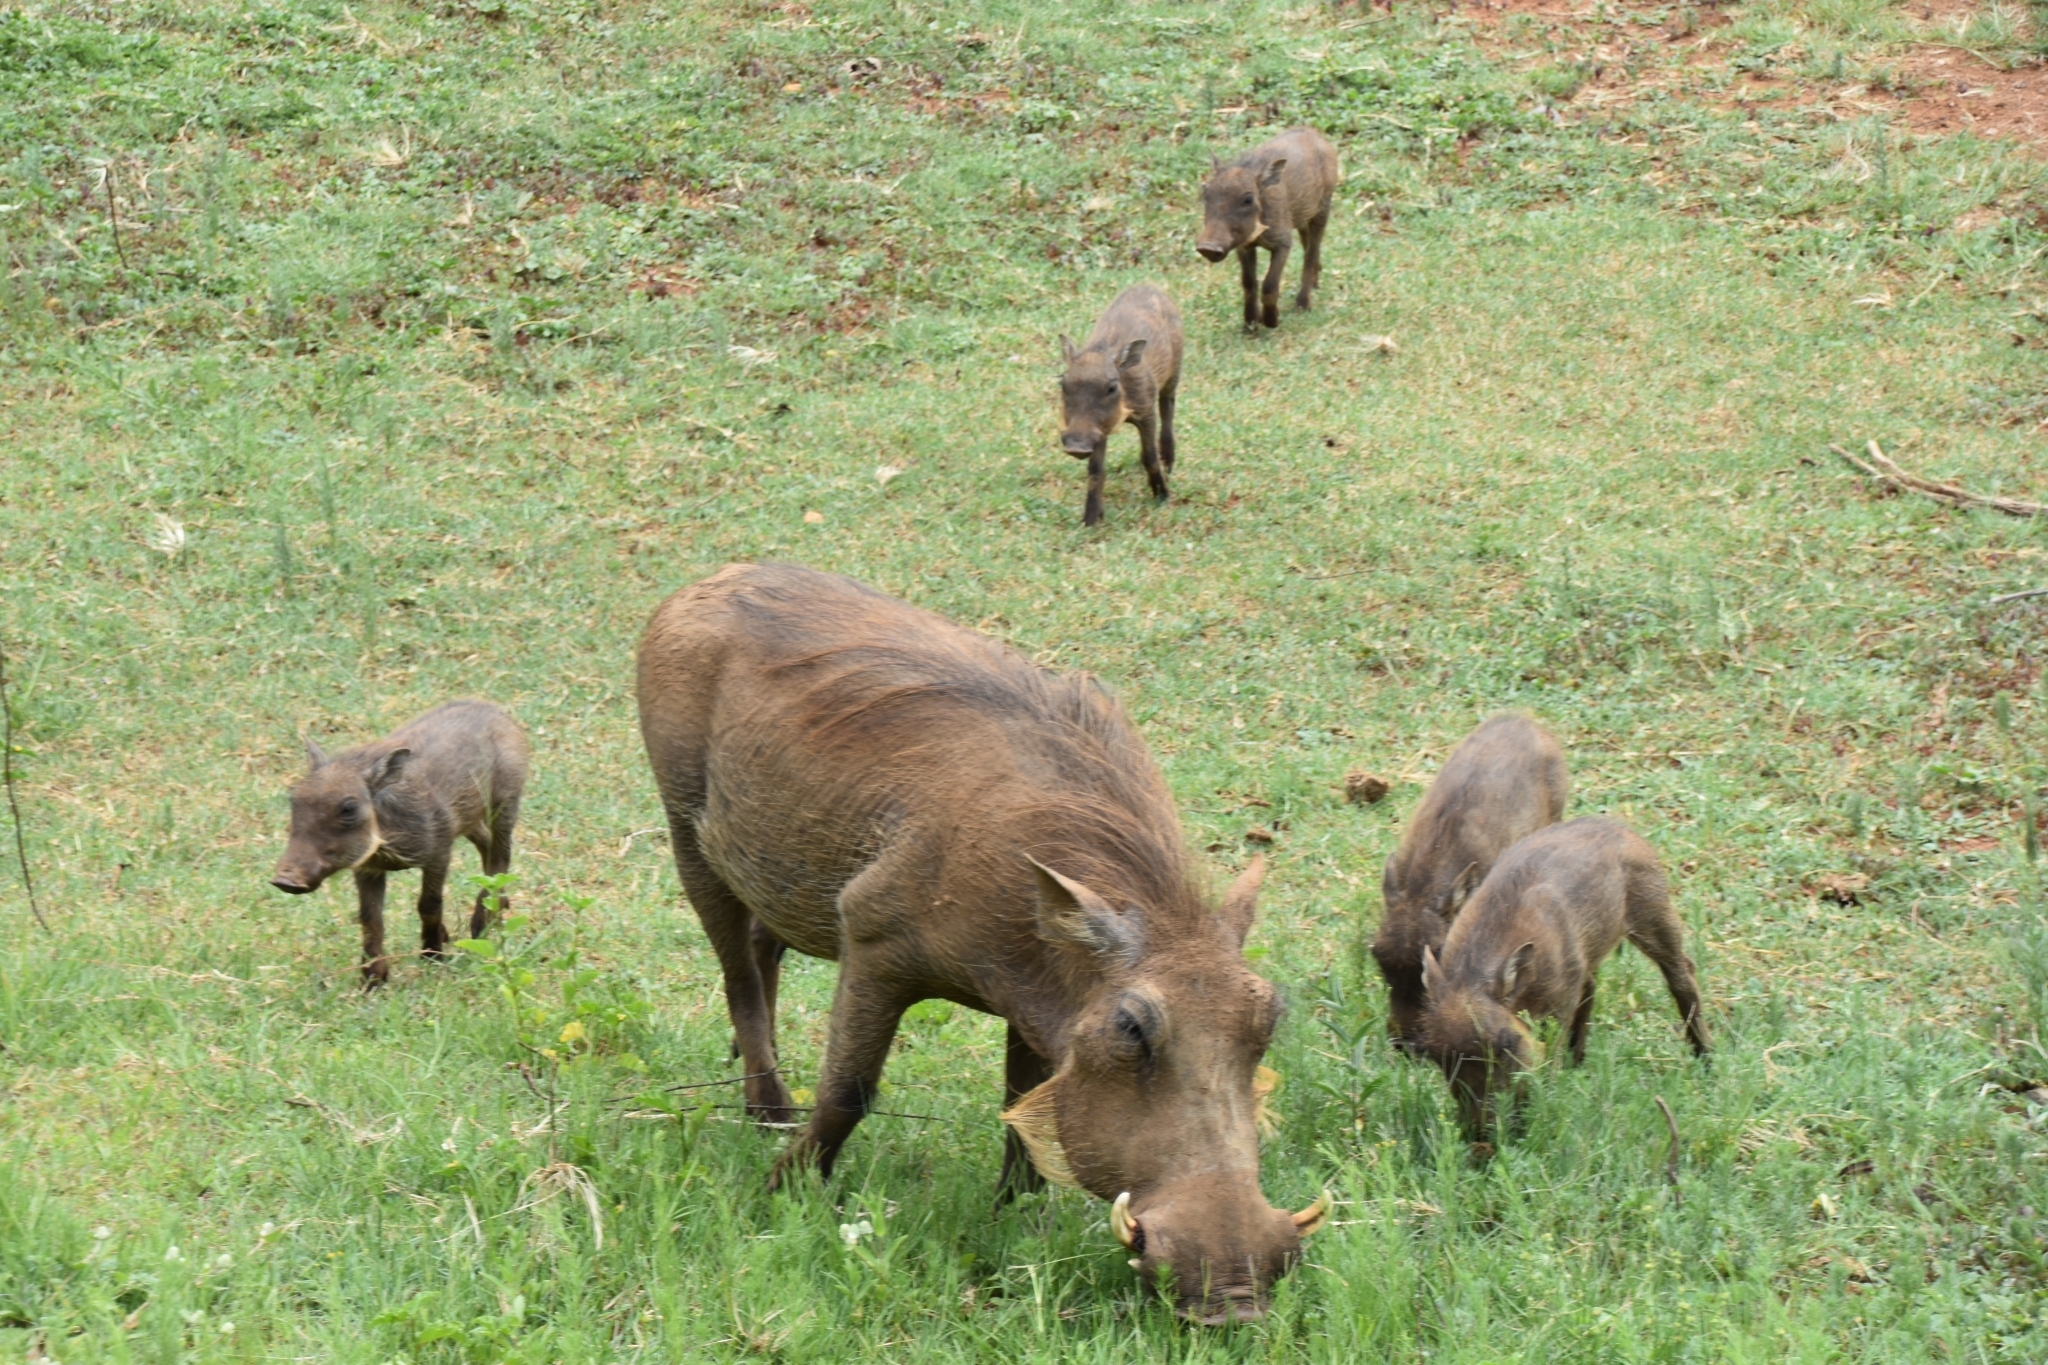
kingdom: Animalia
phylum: Chordata
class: Mammalia
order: Artiodactyla
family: Suidae
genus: Phacochoerus
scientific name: Phacochoerus africanus
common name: Common warthog
